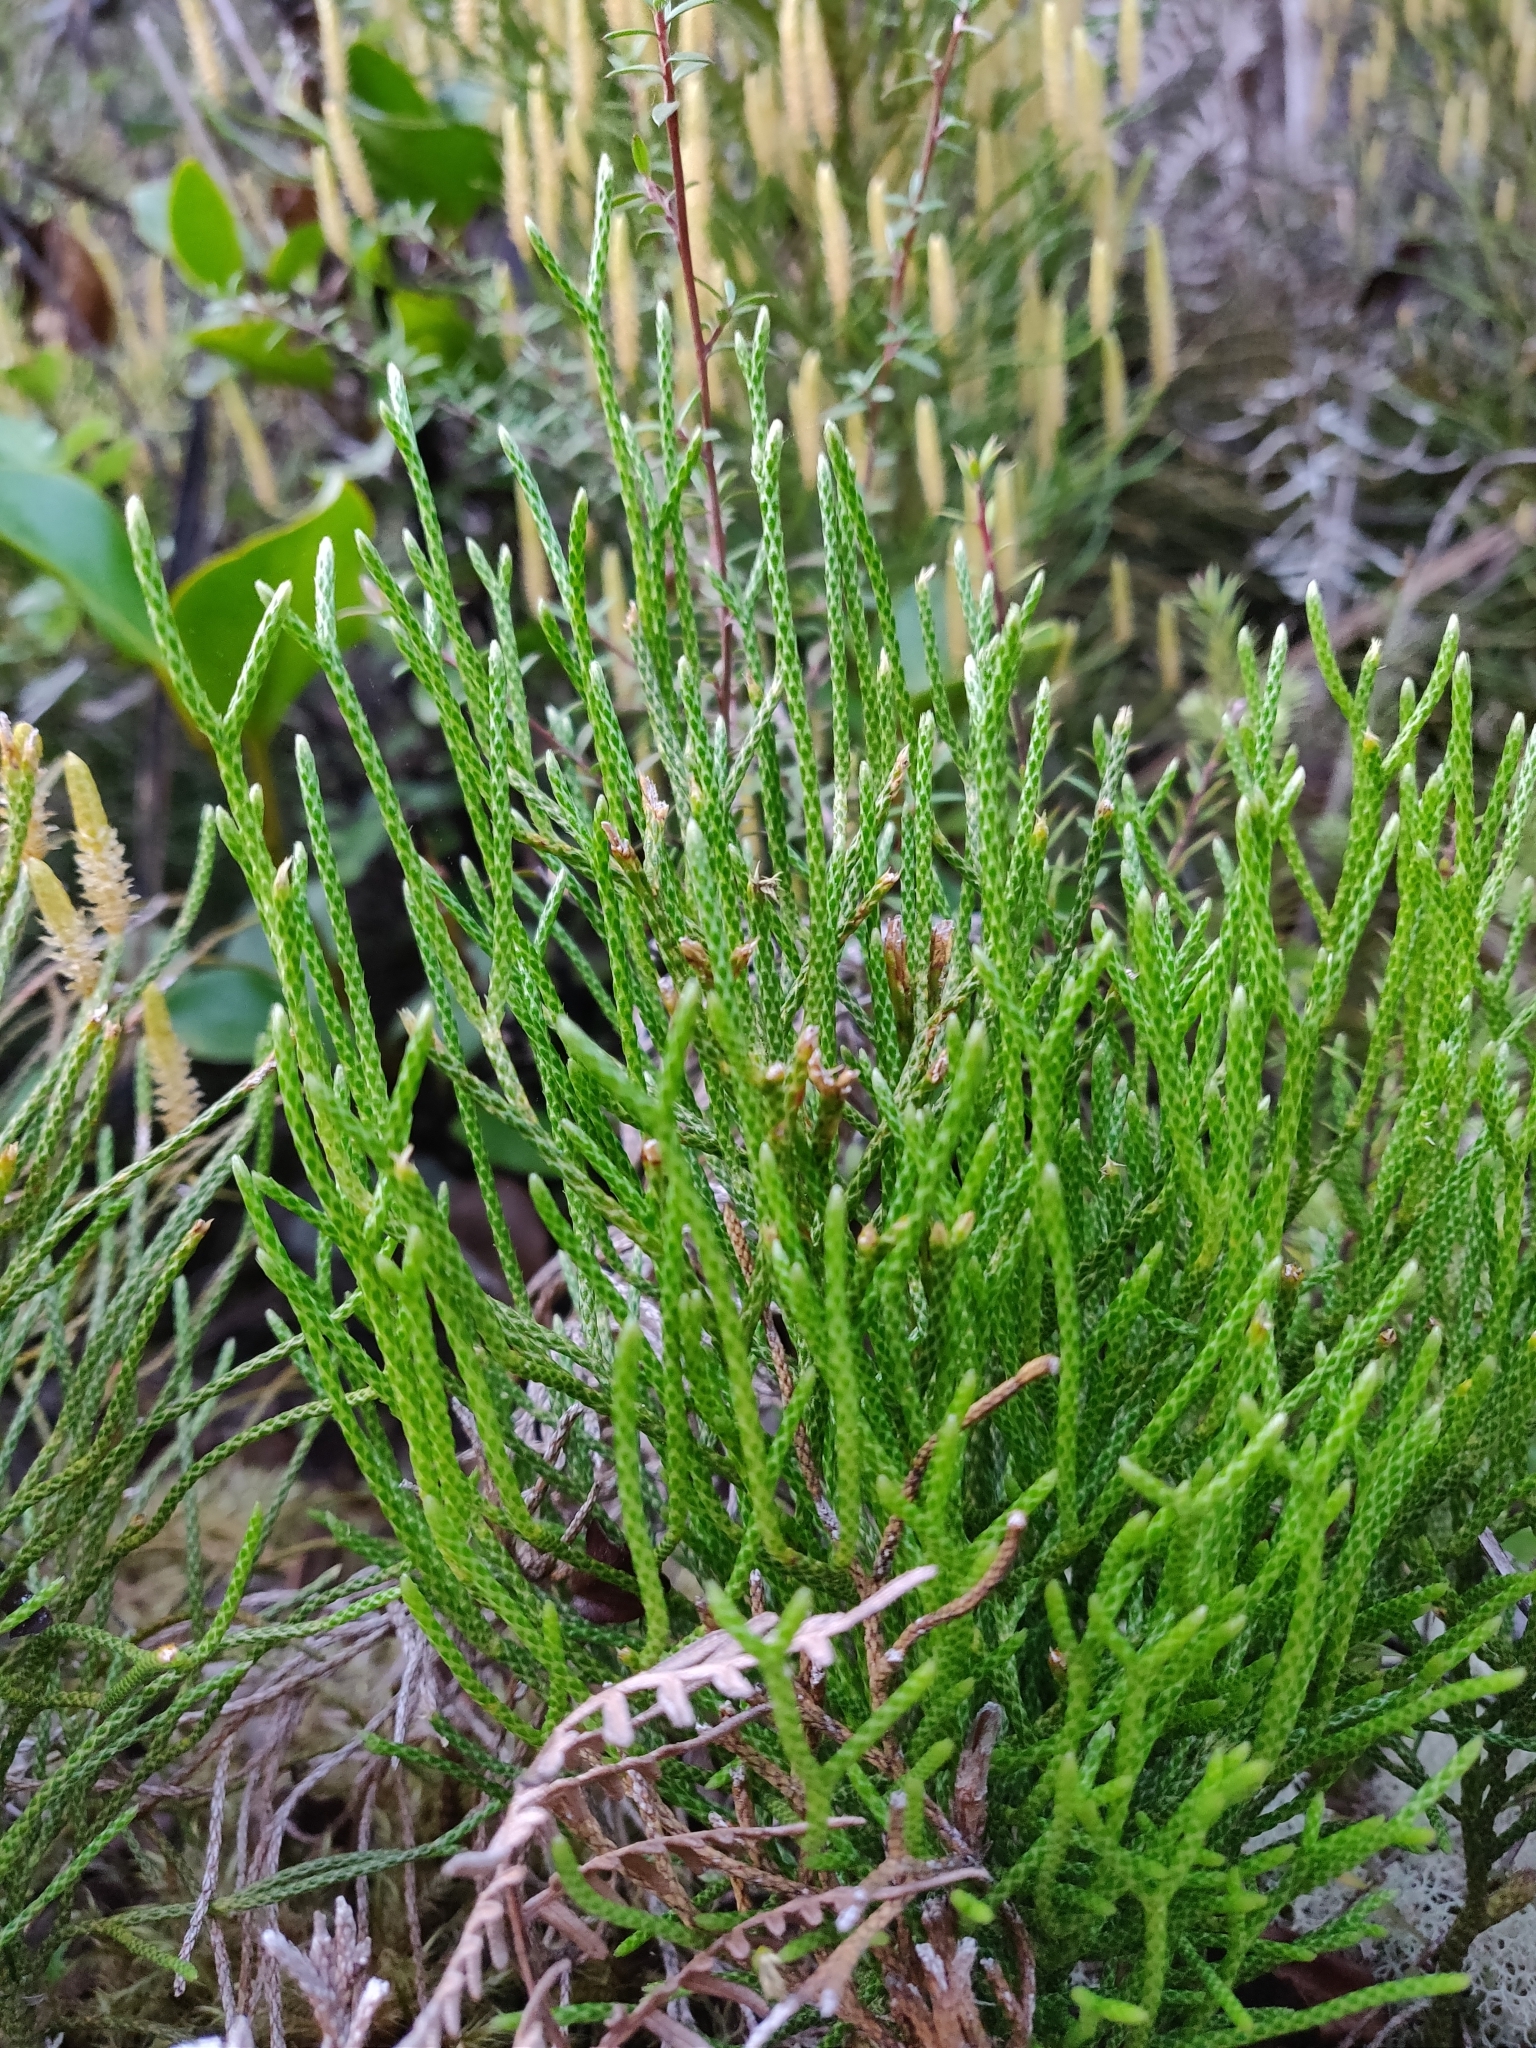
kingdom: Plantae
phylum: Tracheophyta
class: Lycopodiopsida
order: Lycopodiales
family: Lycopodiaceae
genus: Pseudolycopodium
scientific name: Pseudolycopodium densum
